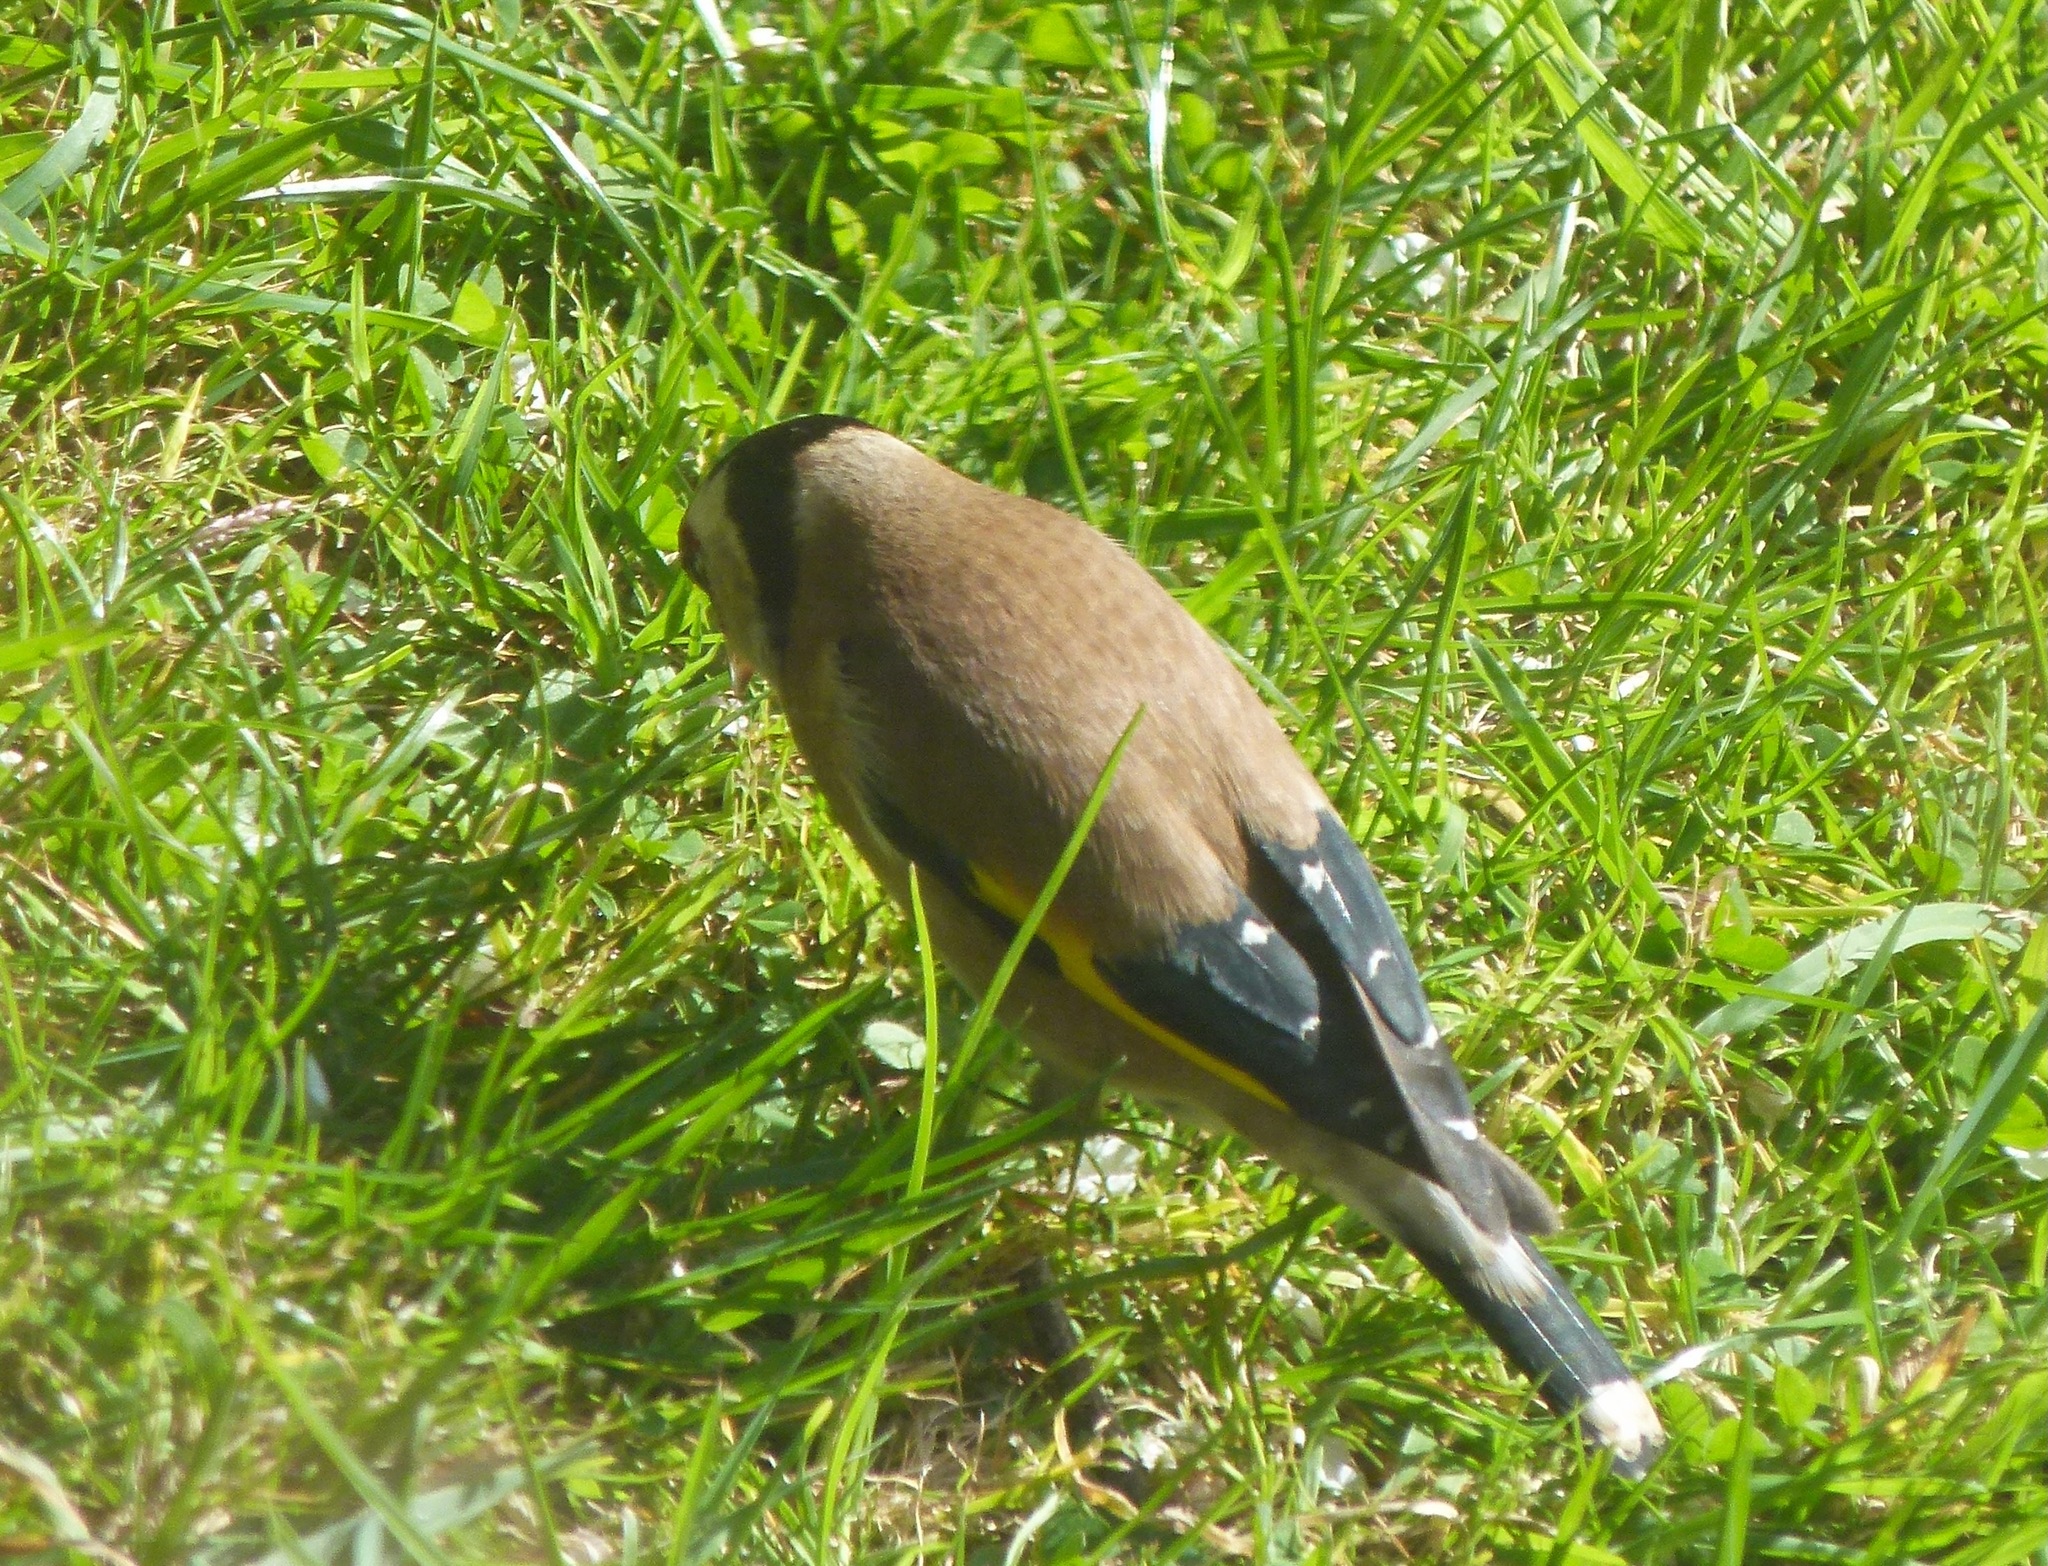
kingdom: Animalia
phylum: Chordata
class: Aves
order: Passeriformes
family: Fringillidae
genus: Carduelis
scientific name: Carduelis carduelis
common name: European goldfinch
